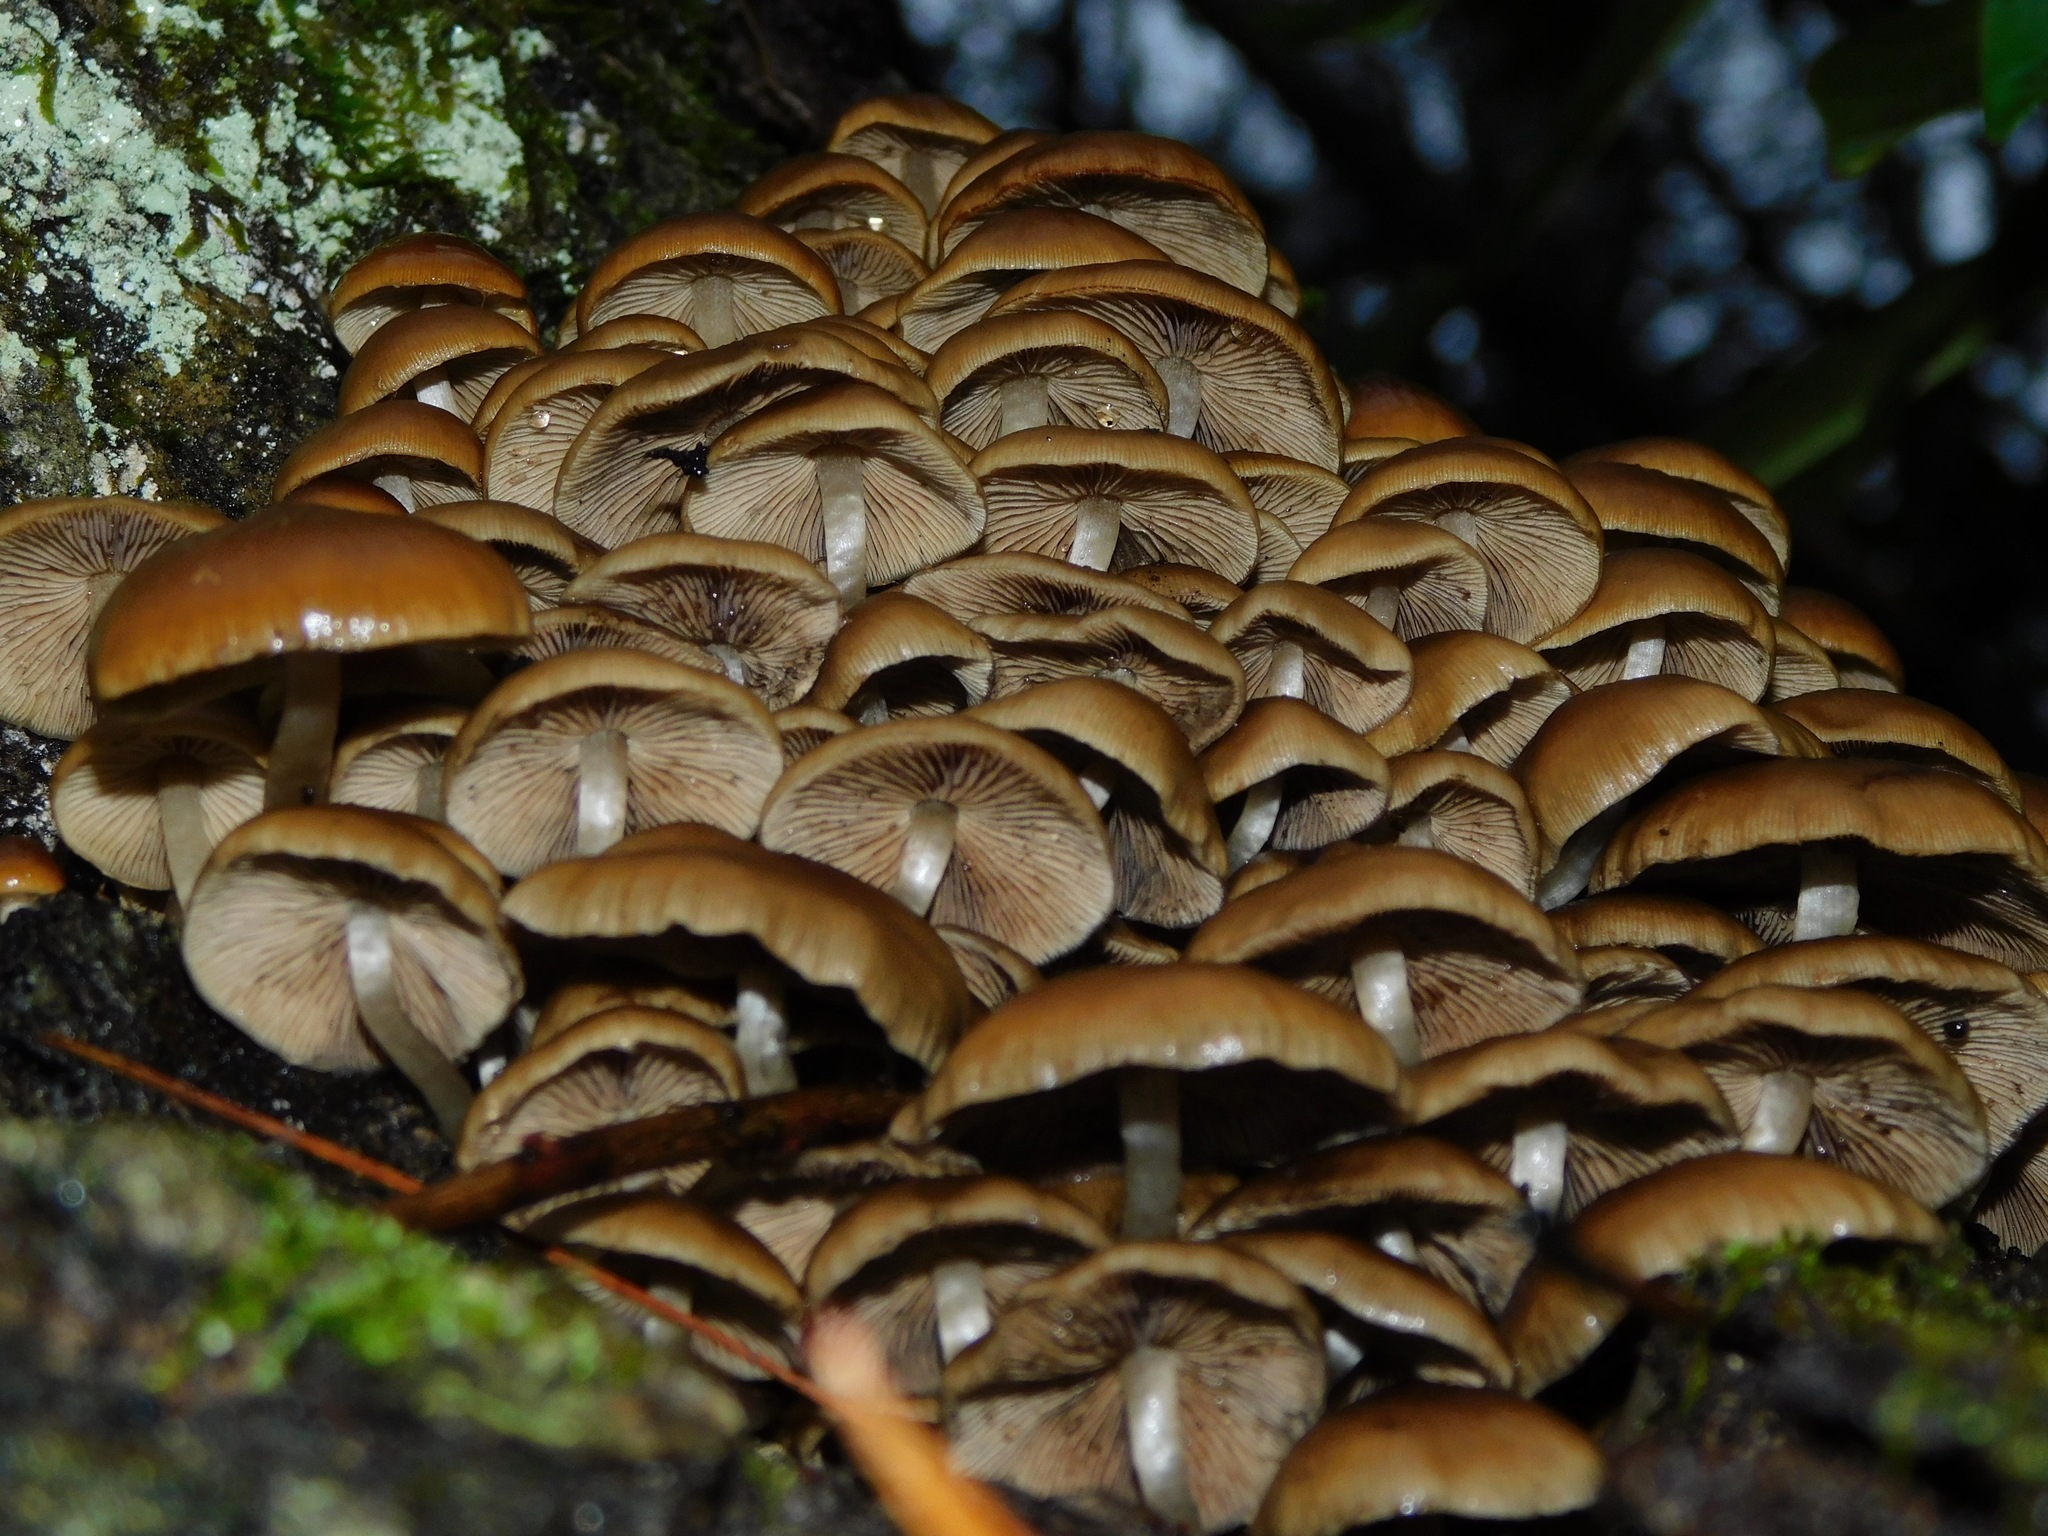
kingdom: Fungi
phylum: Basidiomycota
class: Agaricomycetes
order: Agaricales
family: Psathyrellaceae
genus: Psathyrella
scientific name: Psathyrella piluliformis
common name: Common stump brittlestem
